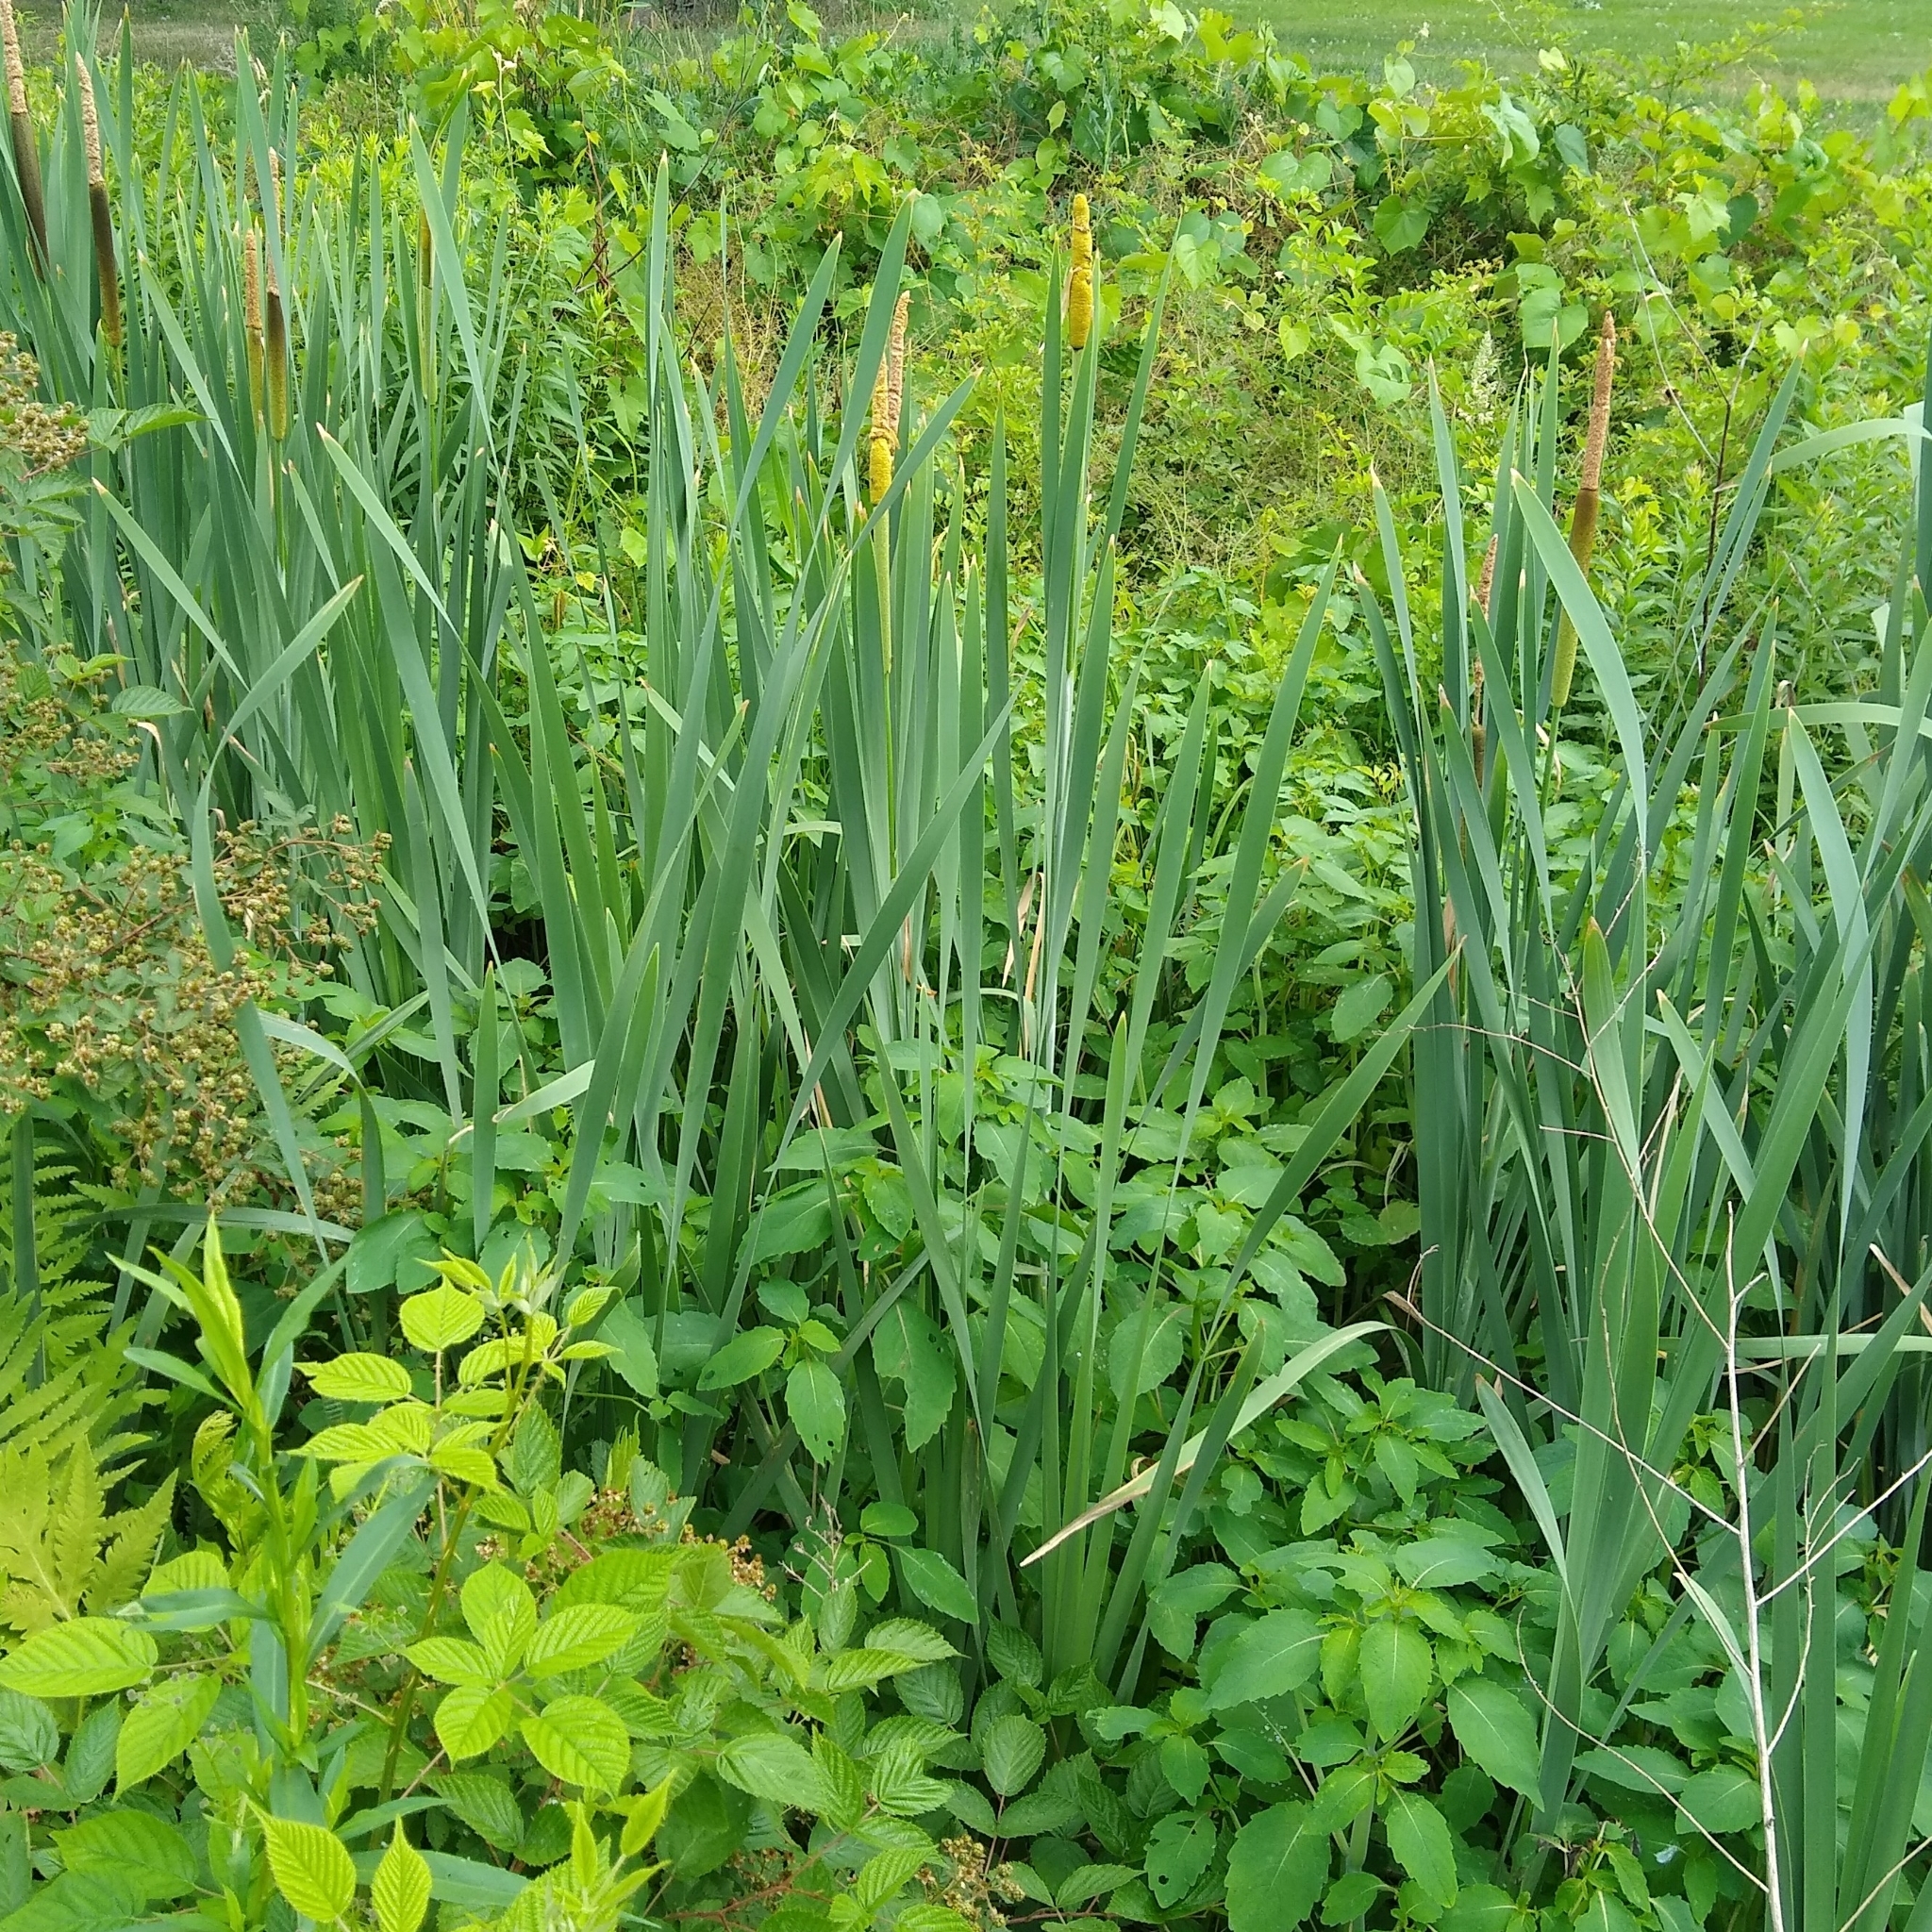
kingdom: Plantae
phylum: Tracheophyta
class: Liliopsida
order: Poales
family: Typhaceae
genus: Typha
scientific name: Typha latifolia
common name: Broadleaf cattail
